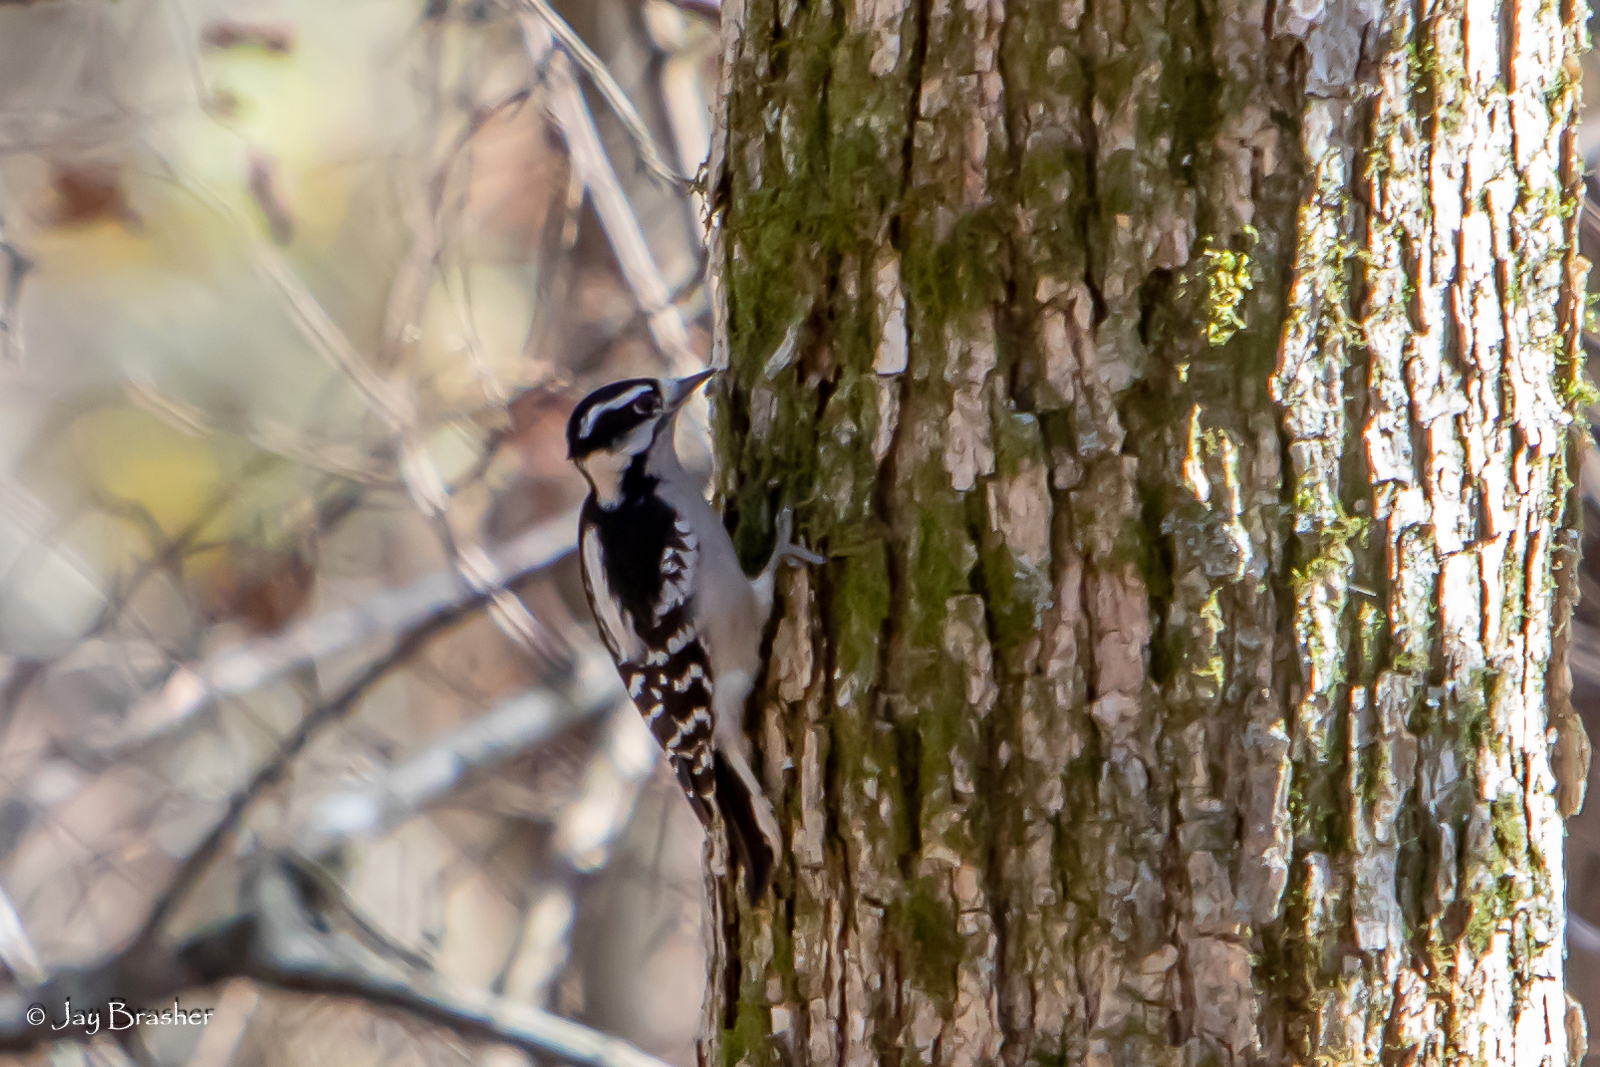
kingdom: Animalia
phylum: Chordata
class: Aves
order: Piciformes
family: Picidae
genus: Dryobates
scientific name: Dryobates pubescens
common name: Downy woodpecker
